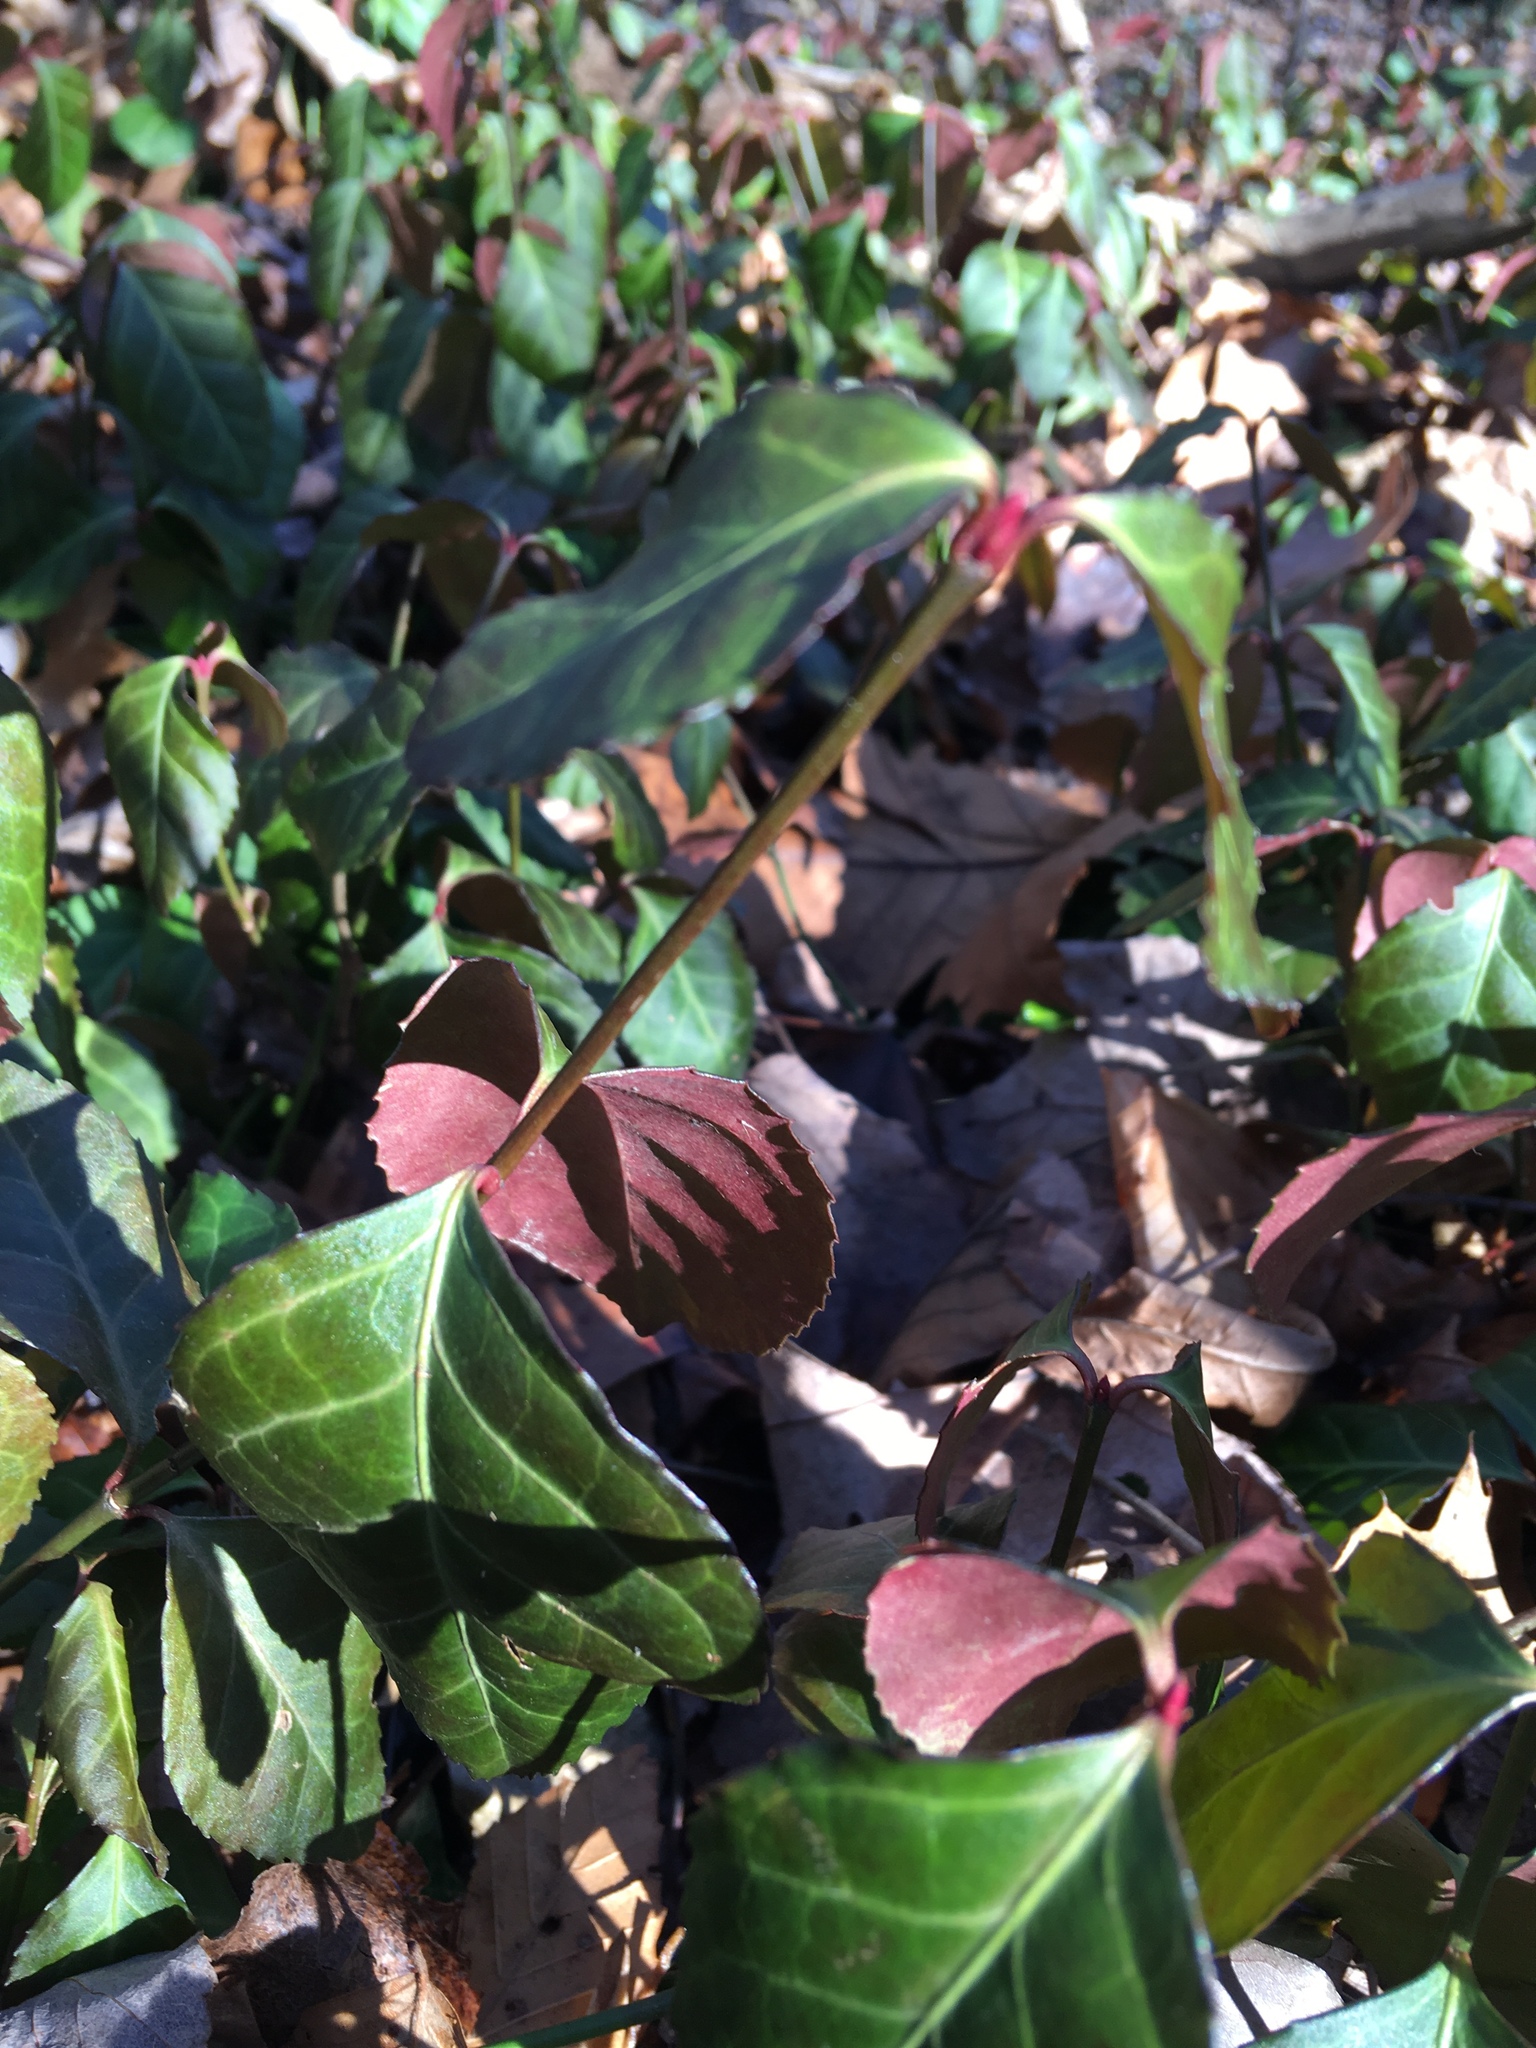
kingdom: Plantae
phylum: Tracheophyta
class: Magnoliopsida
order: Celastrales
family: Celastraceae
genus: Euonymus
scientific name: Euonymus fortunei
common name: Climbing euonymus
